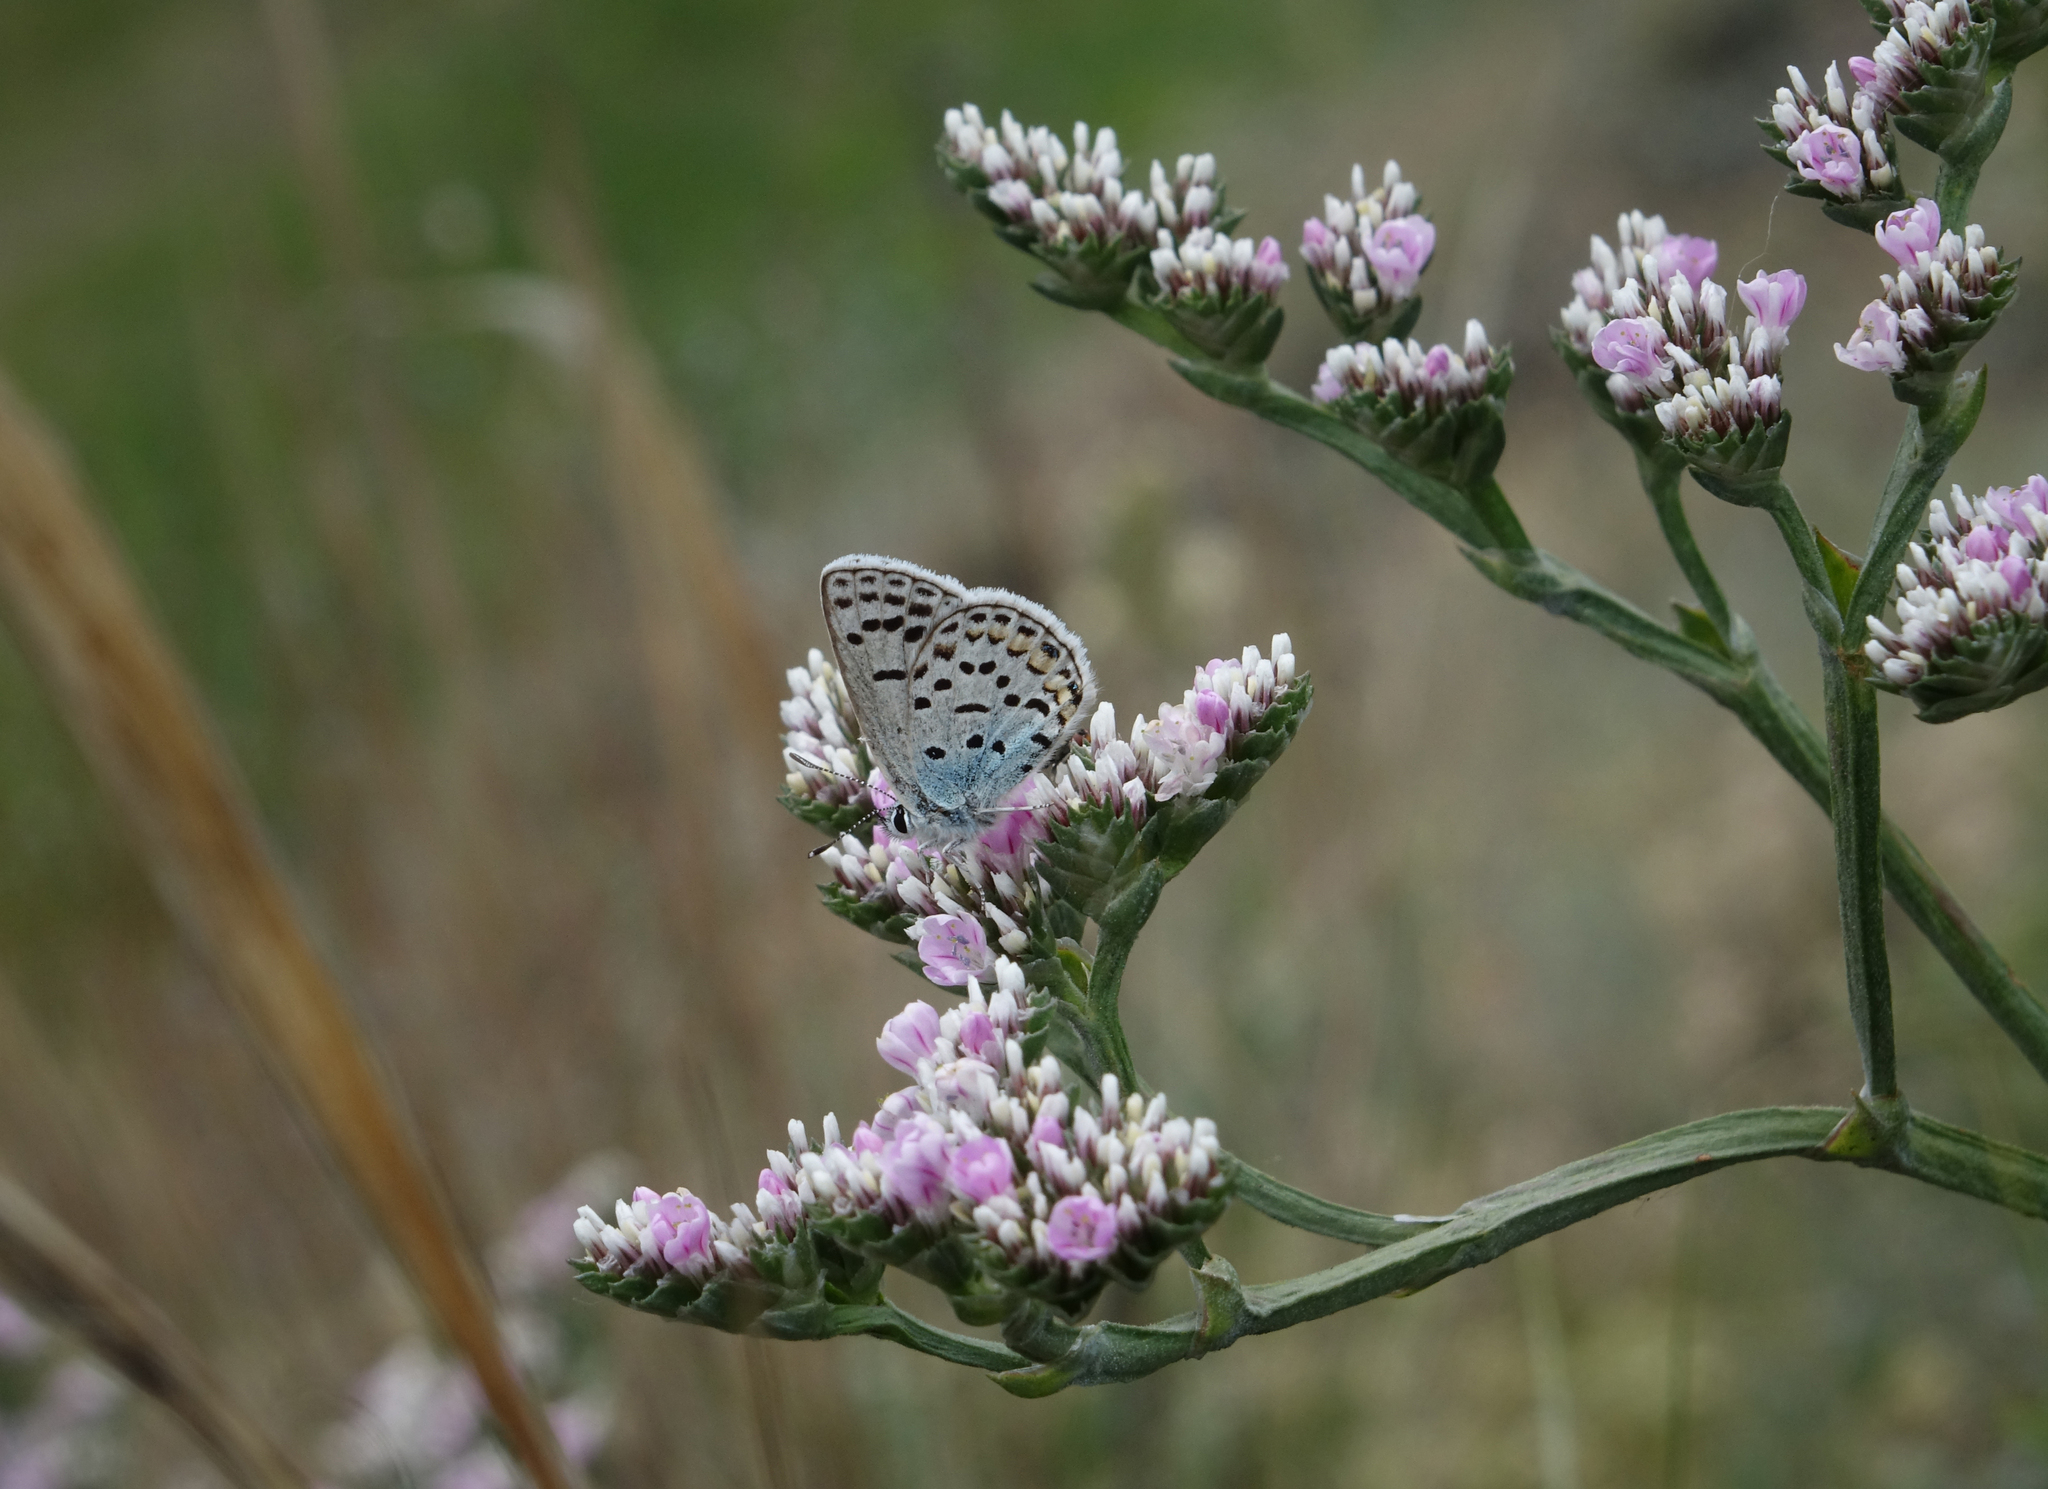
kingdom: Plantae
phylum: Tracheophyta
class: Magnoliopsida
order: Caryophyllales
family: Plumbaginaceae
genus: Goniolimon
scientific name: Goniolimon speciosum
